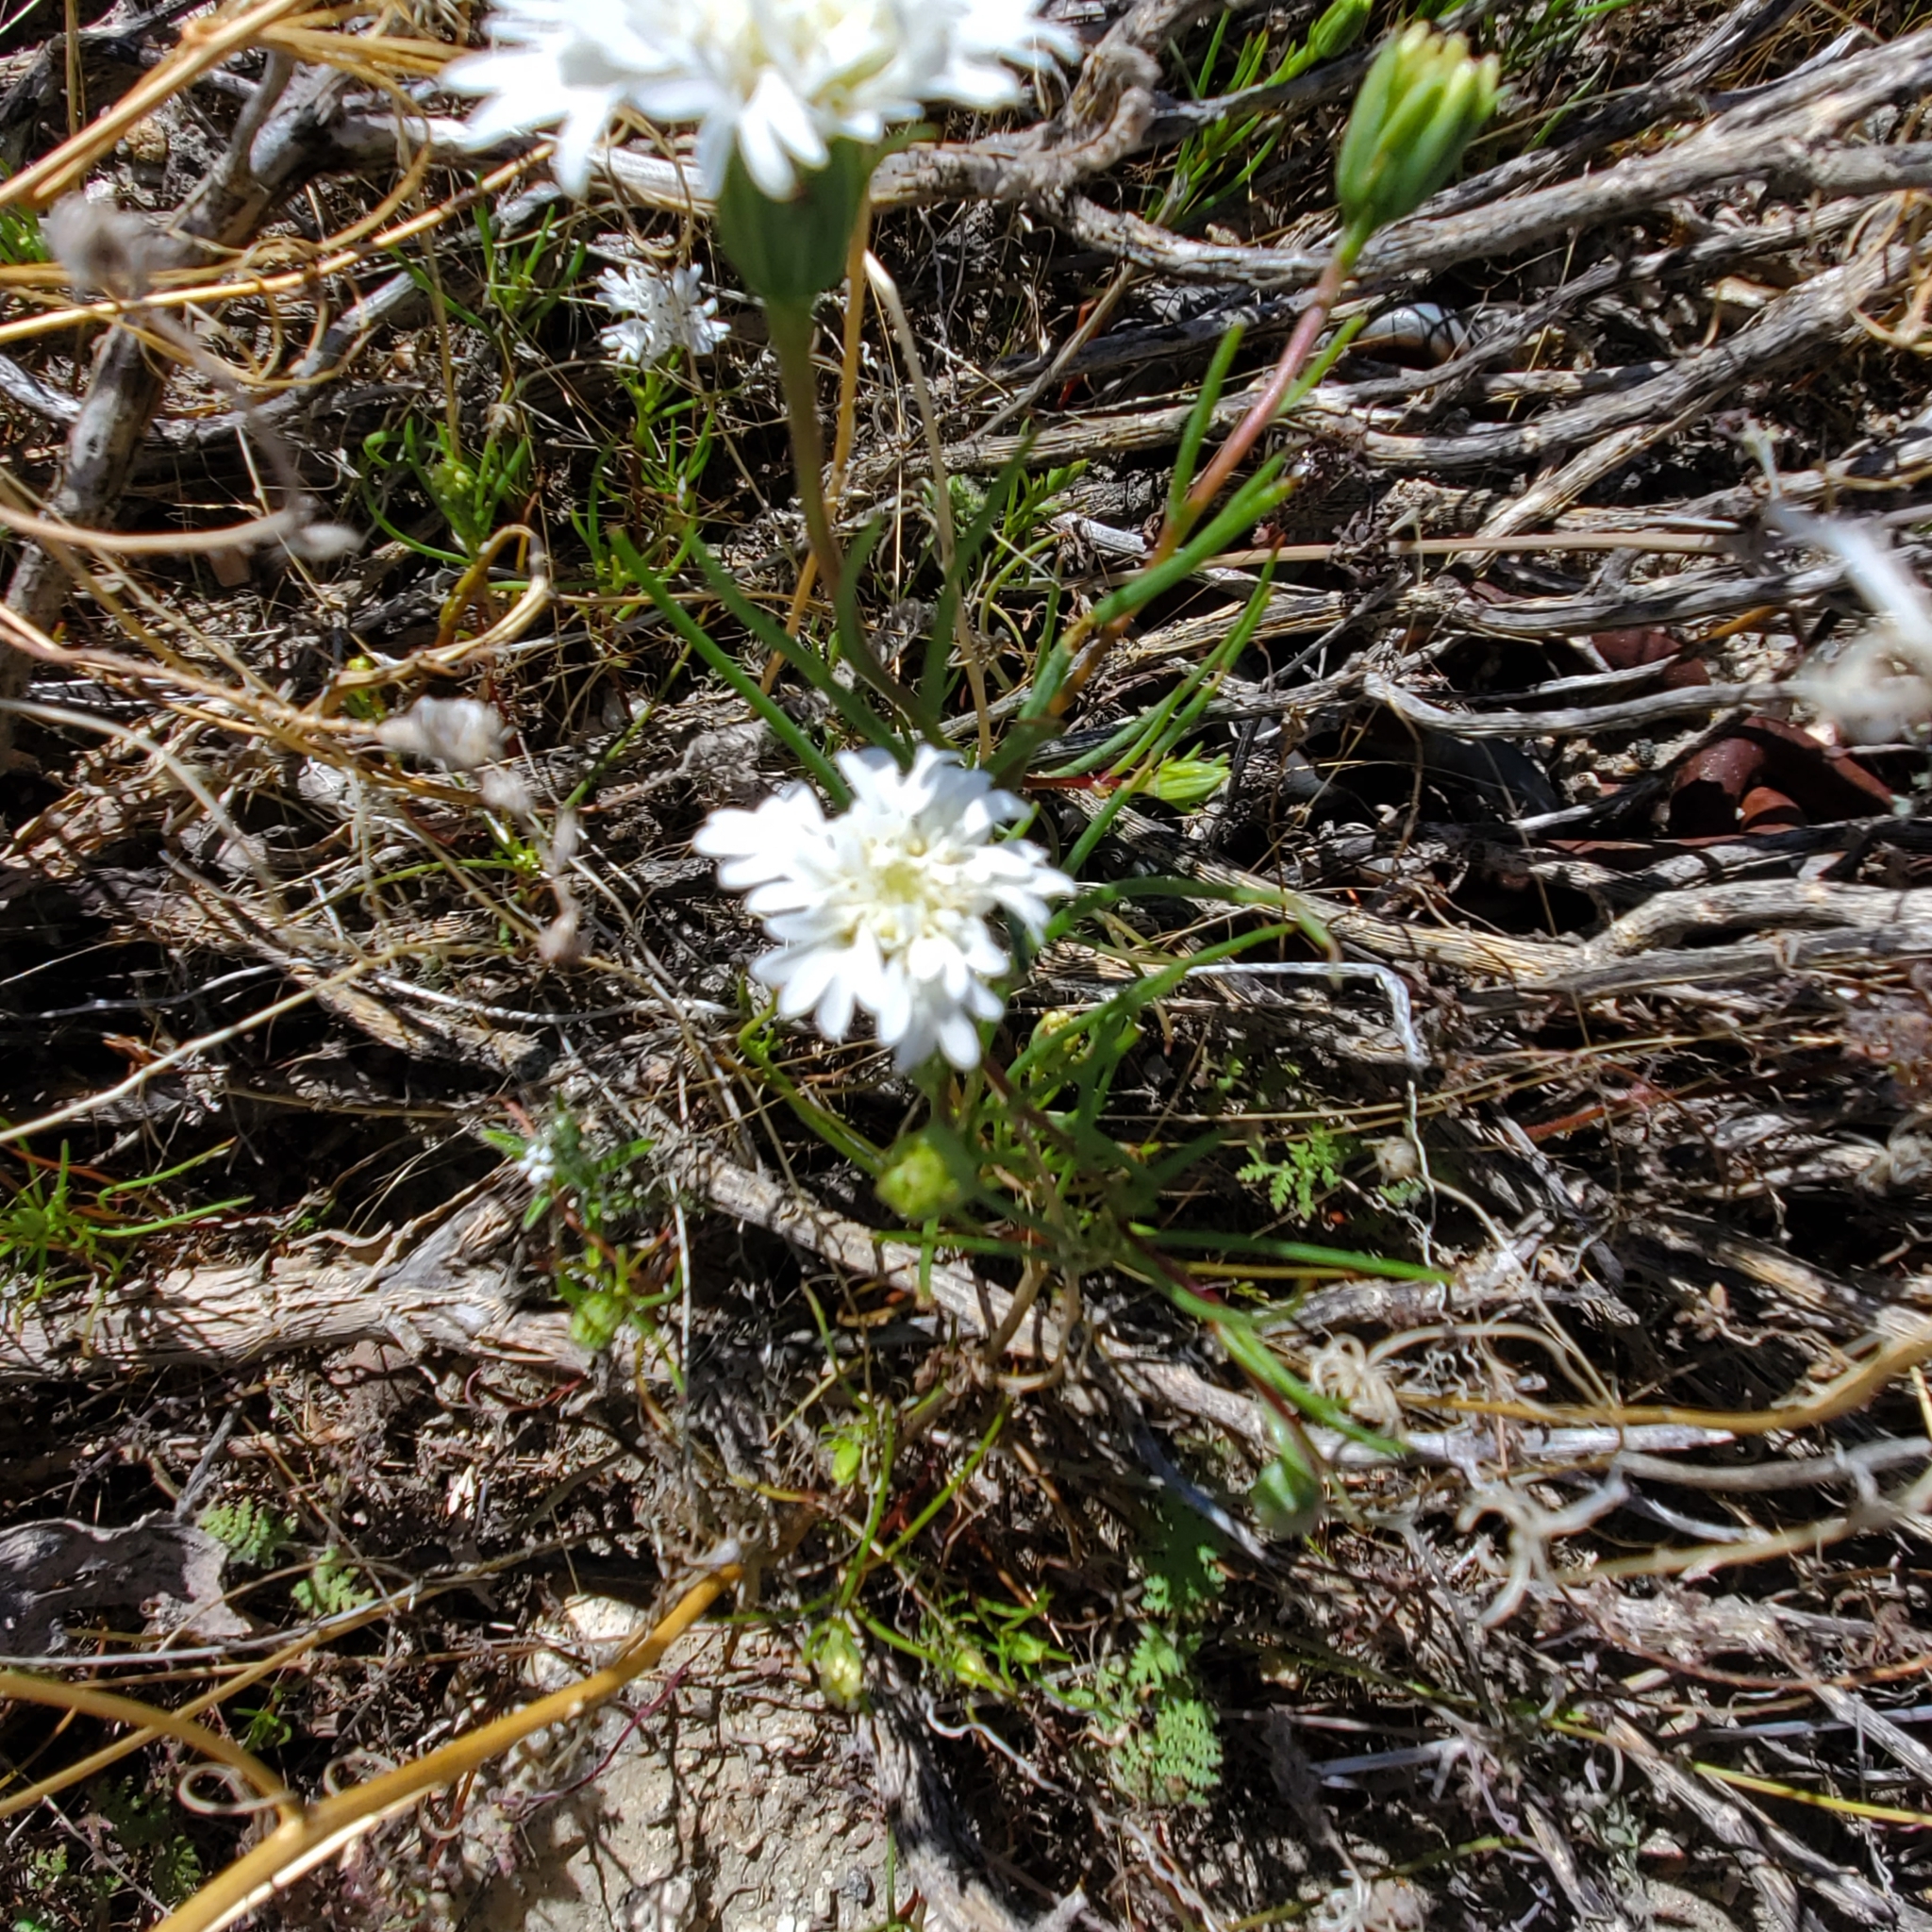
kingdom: Plantae
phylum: Tracheophyta
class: Magnoliopsida
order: Asterales
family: Asteraceae
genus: Chaenactis
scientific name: Chaenactis fremontii
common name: Fremont pincushion
